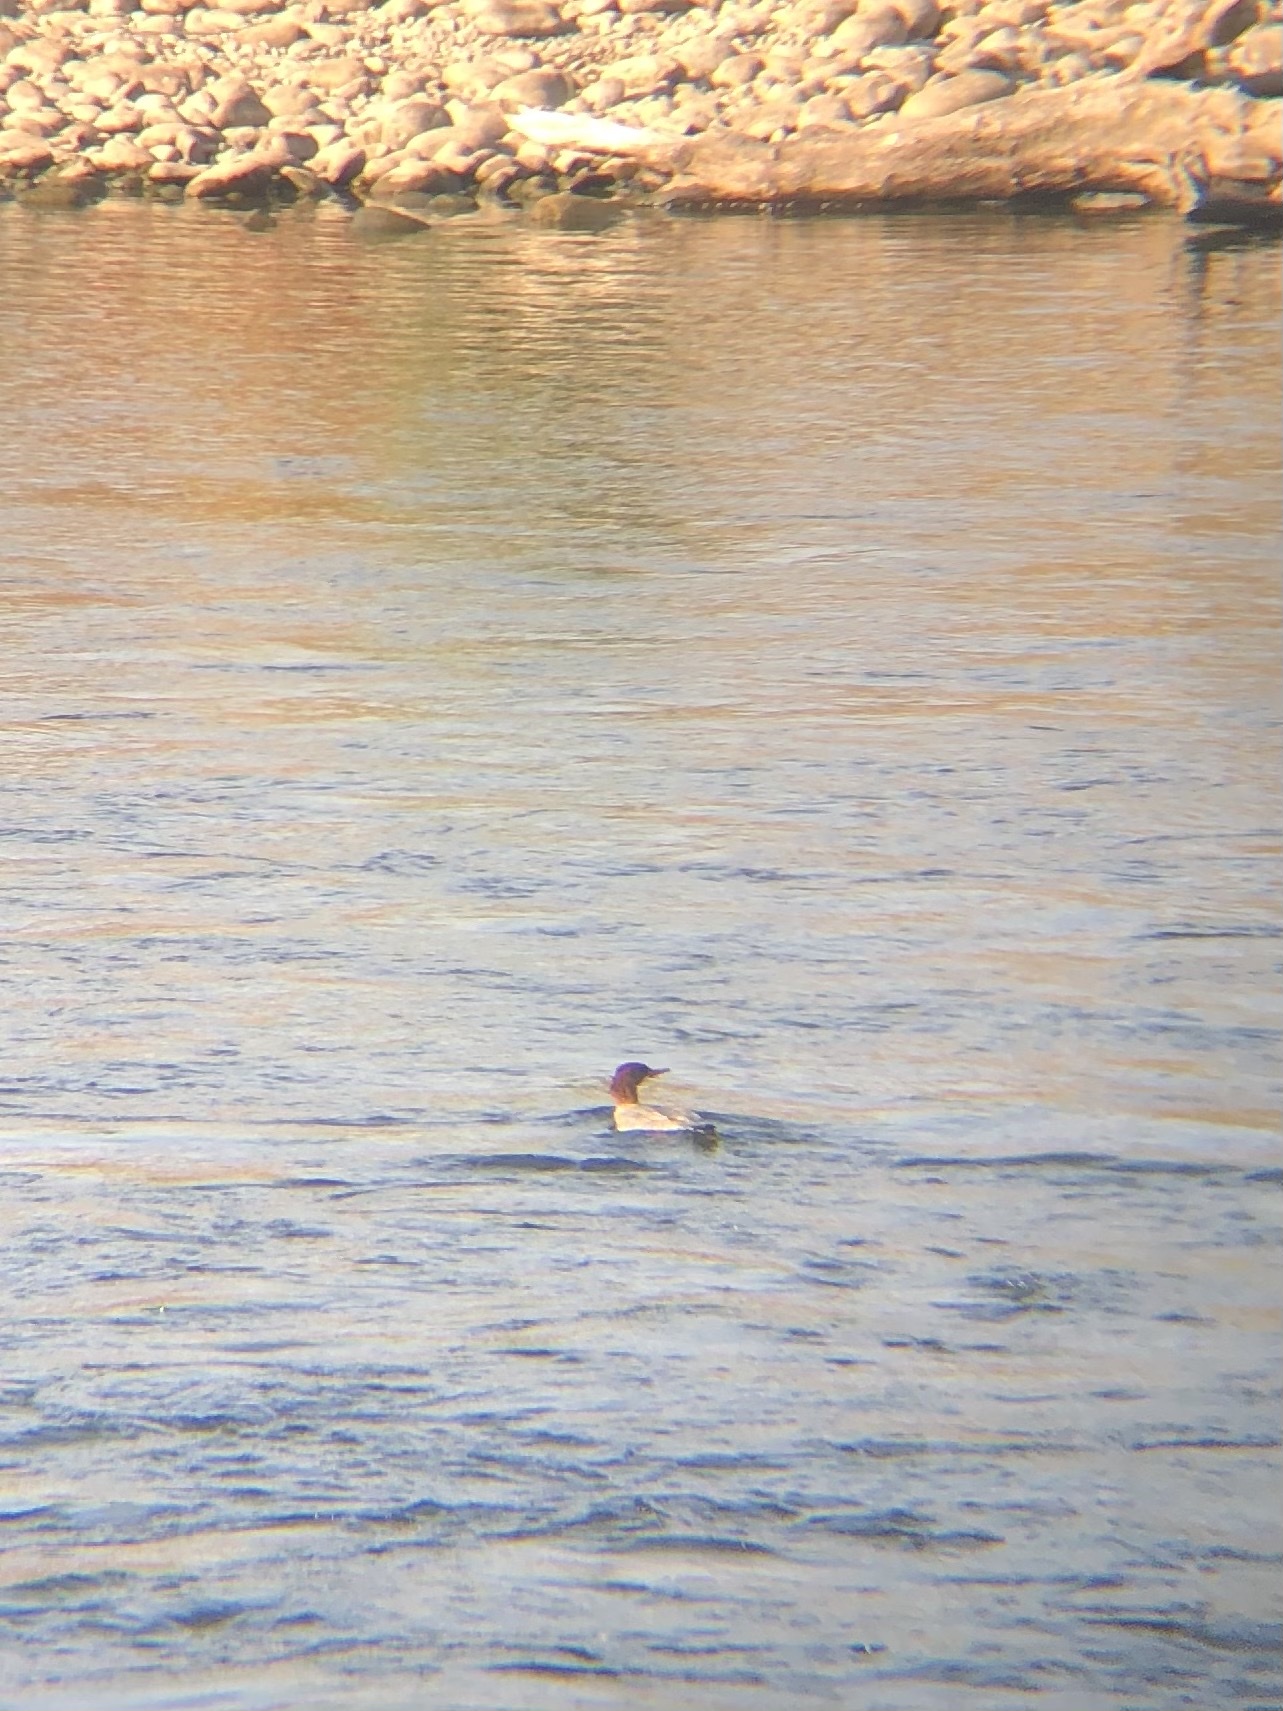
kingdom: Animalia
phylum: Chordata
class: Aves
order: Anseriformes
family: Anatidae
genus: Mergus
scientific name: Mergus merganser
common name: Common merganser
